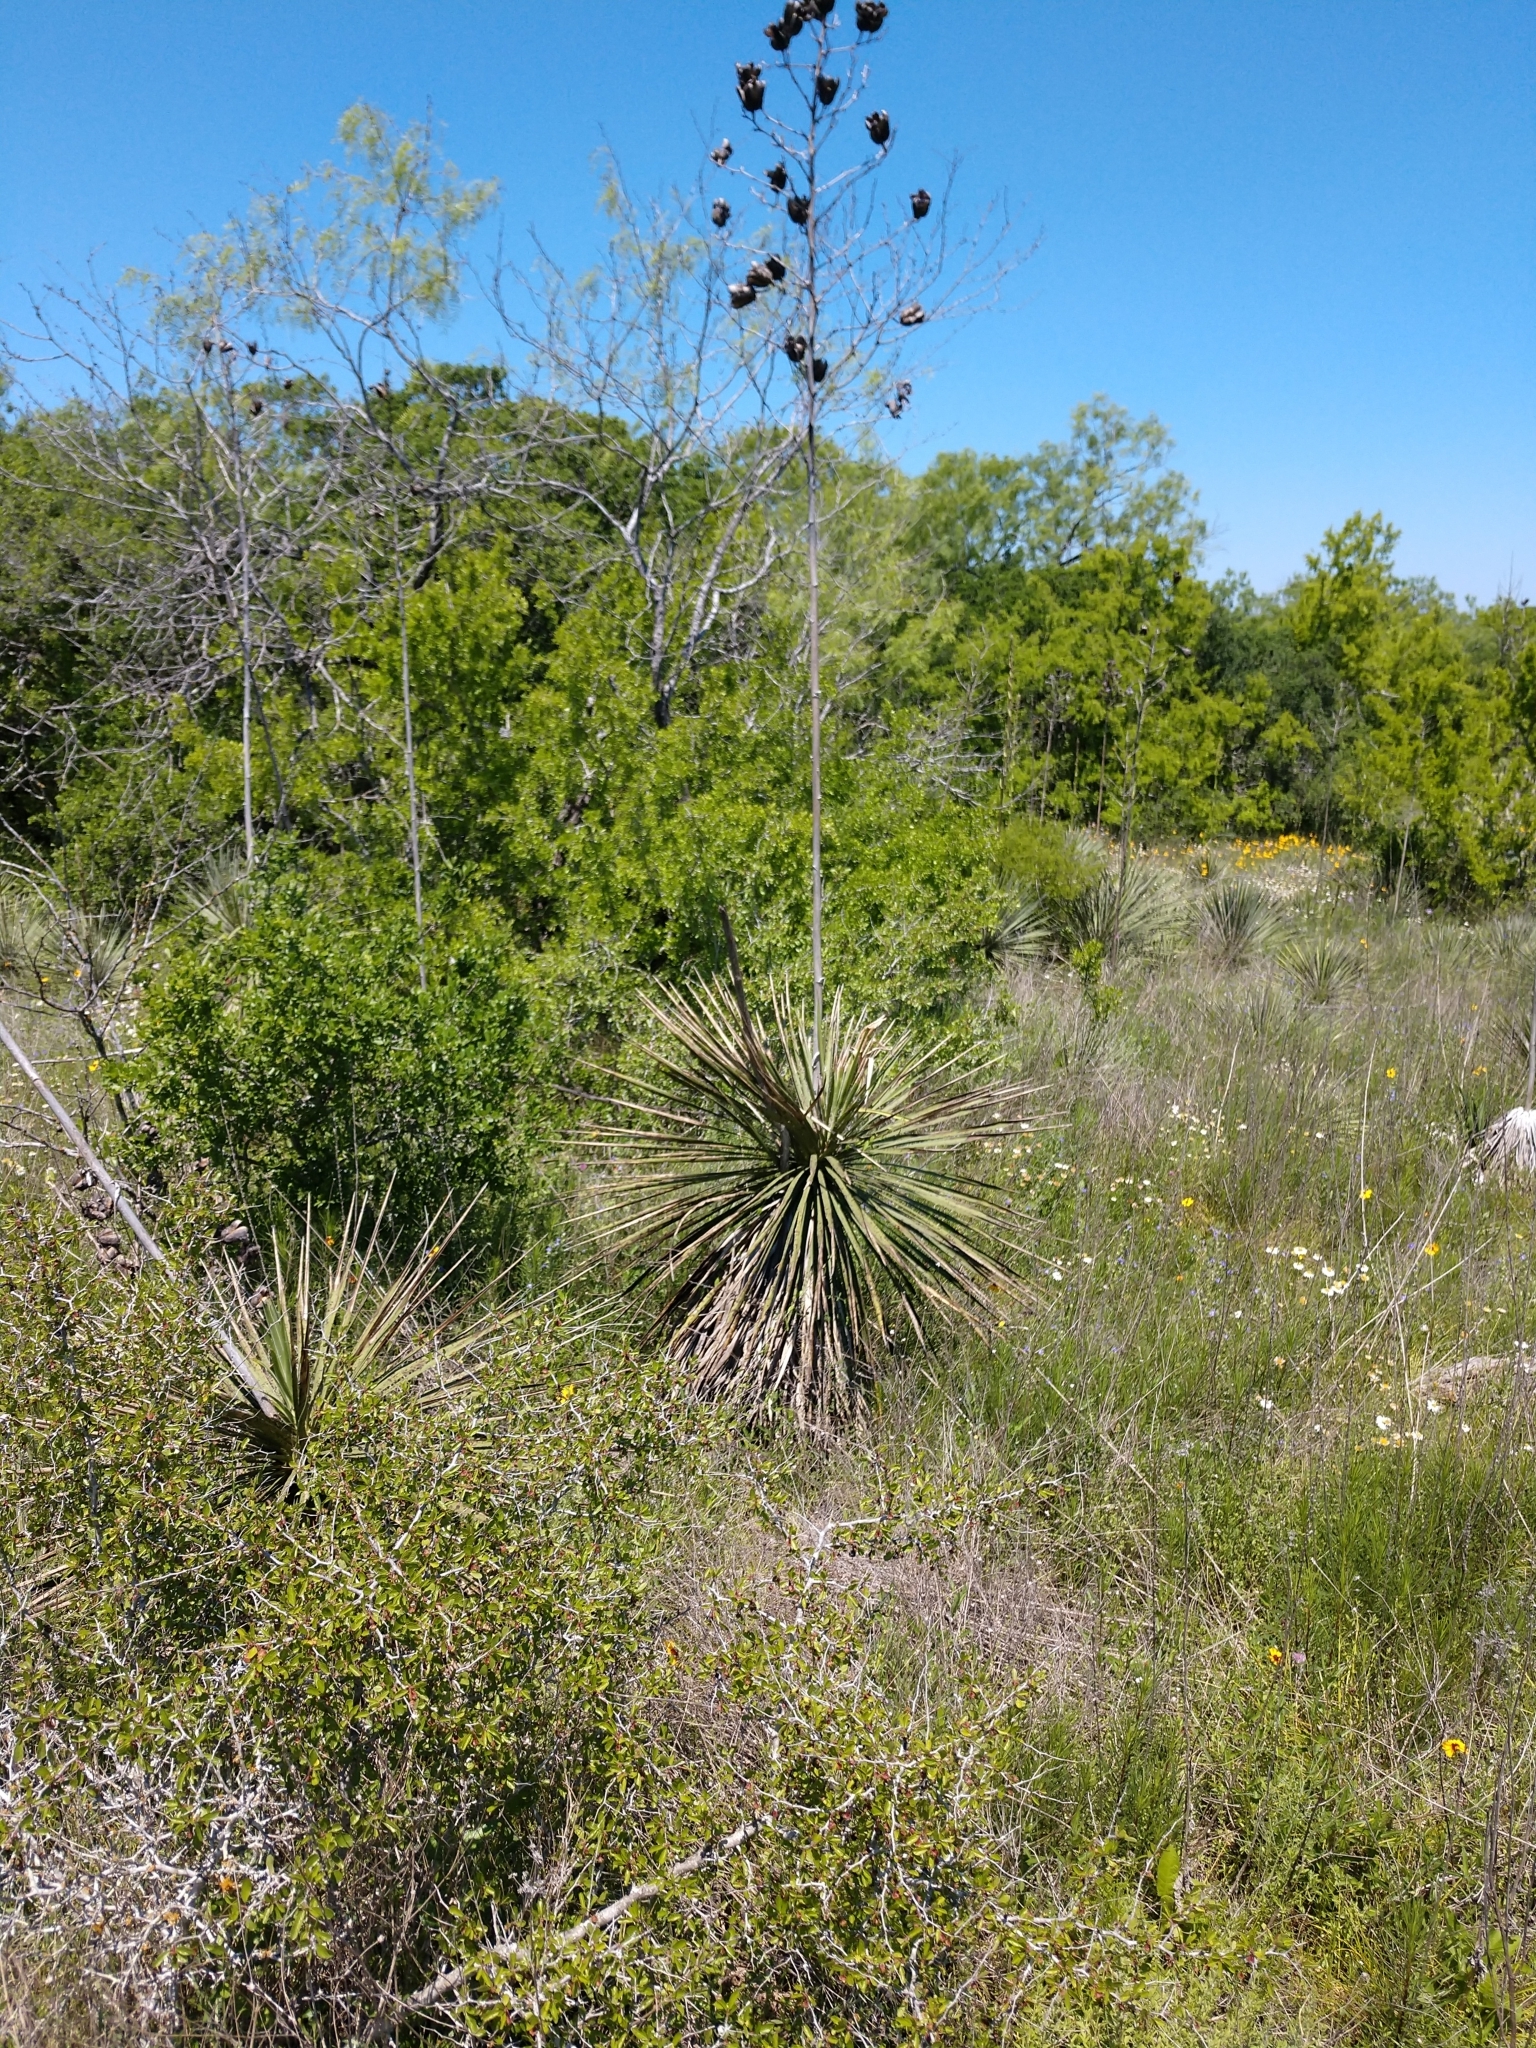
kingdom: Plantae
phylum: Tracheophyta
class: Liliopsida
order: Asparagales
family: Asparagaceae
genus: Yucca
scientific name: Yucca constricta
